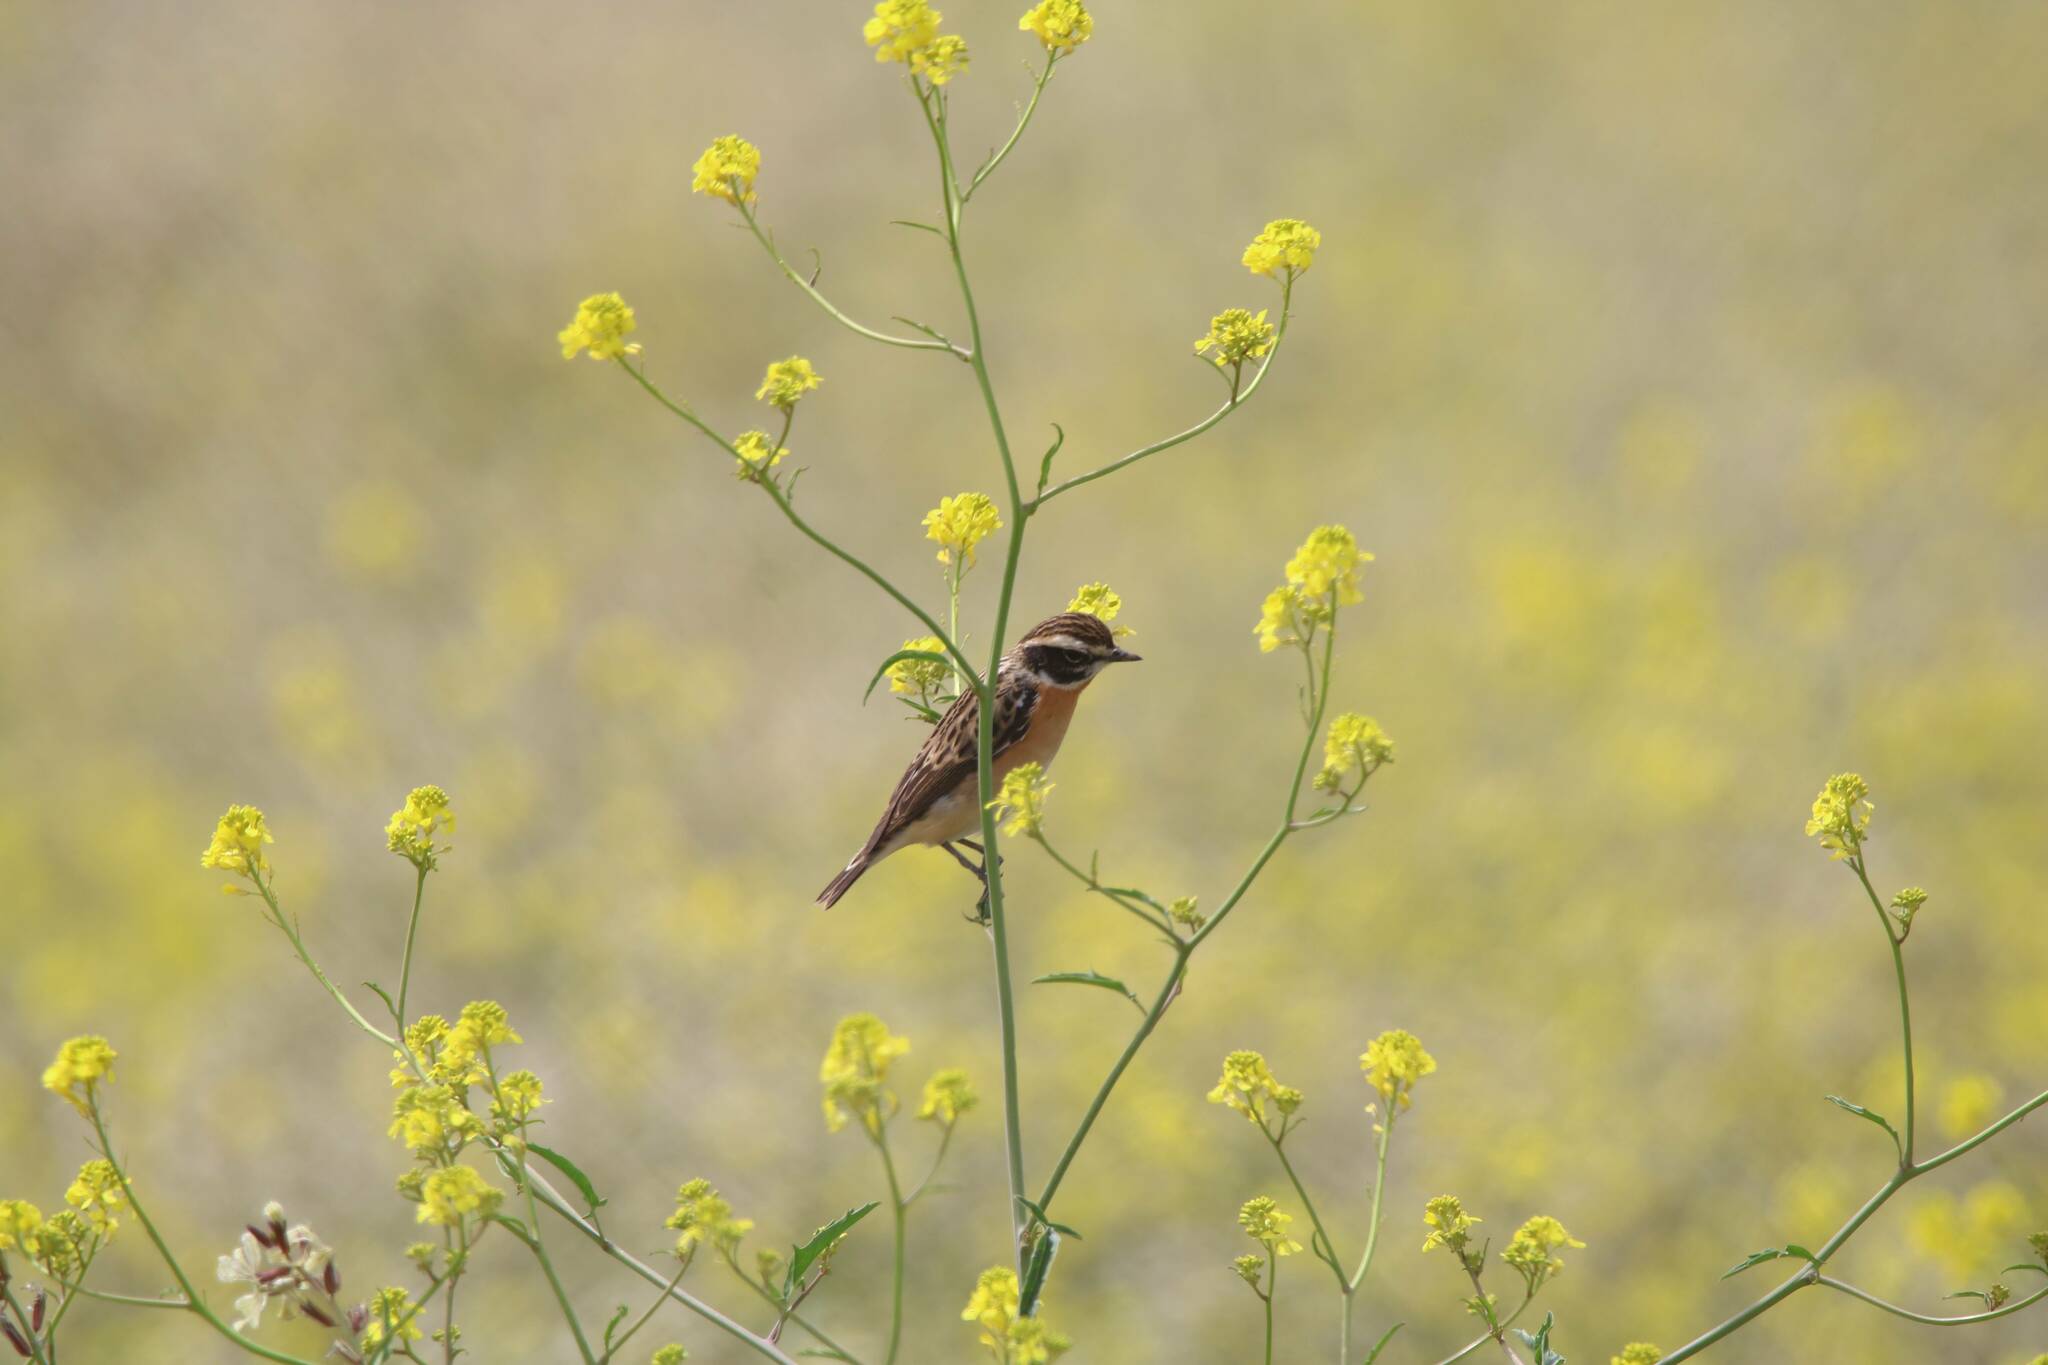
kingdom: Animalia
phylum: Chordata
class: Aves
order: Passeriformes
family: Muscicapidae
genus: Saxicola
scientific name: Saxicola rubetra
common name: Whinchat
